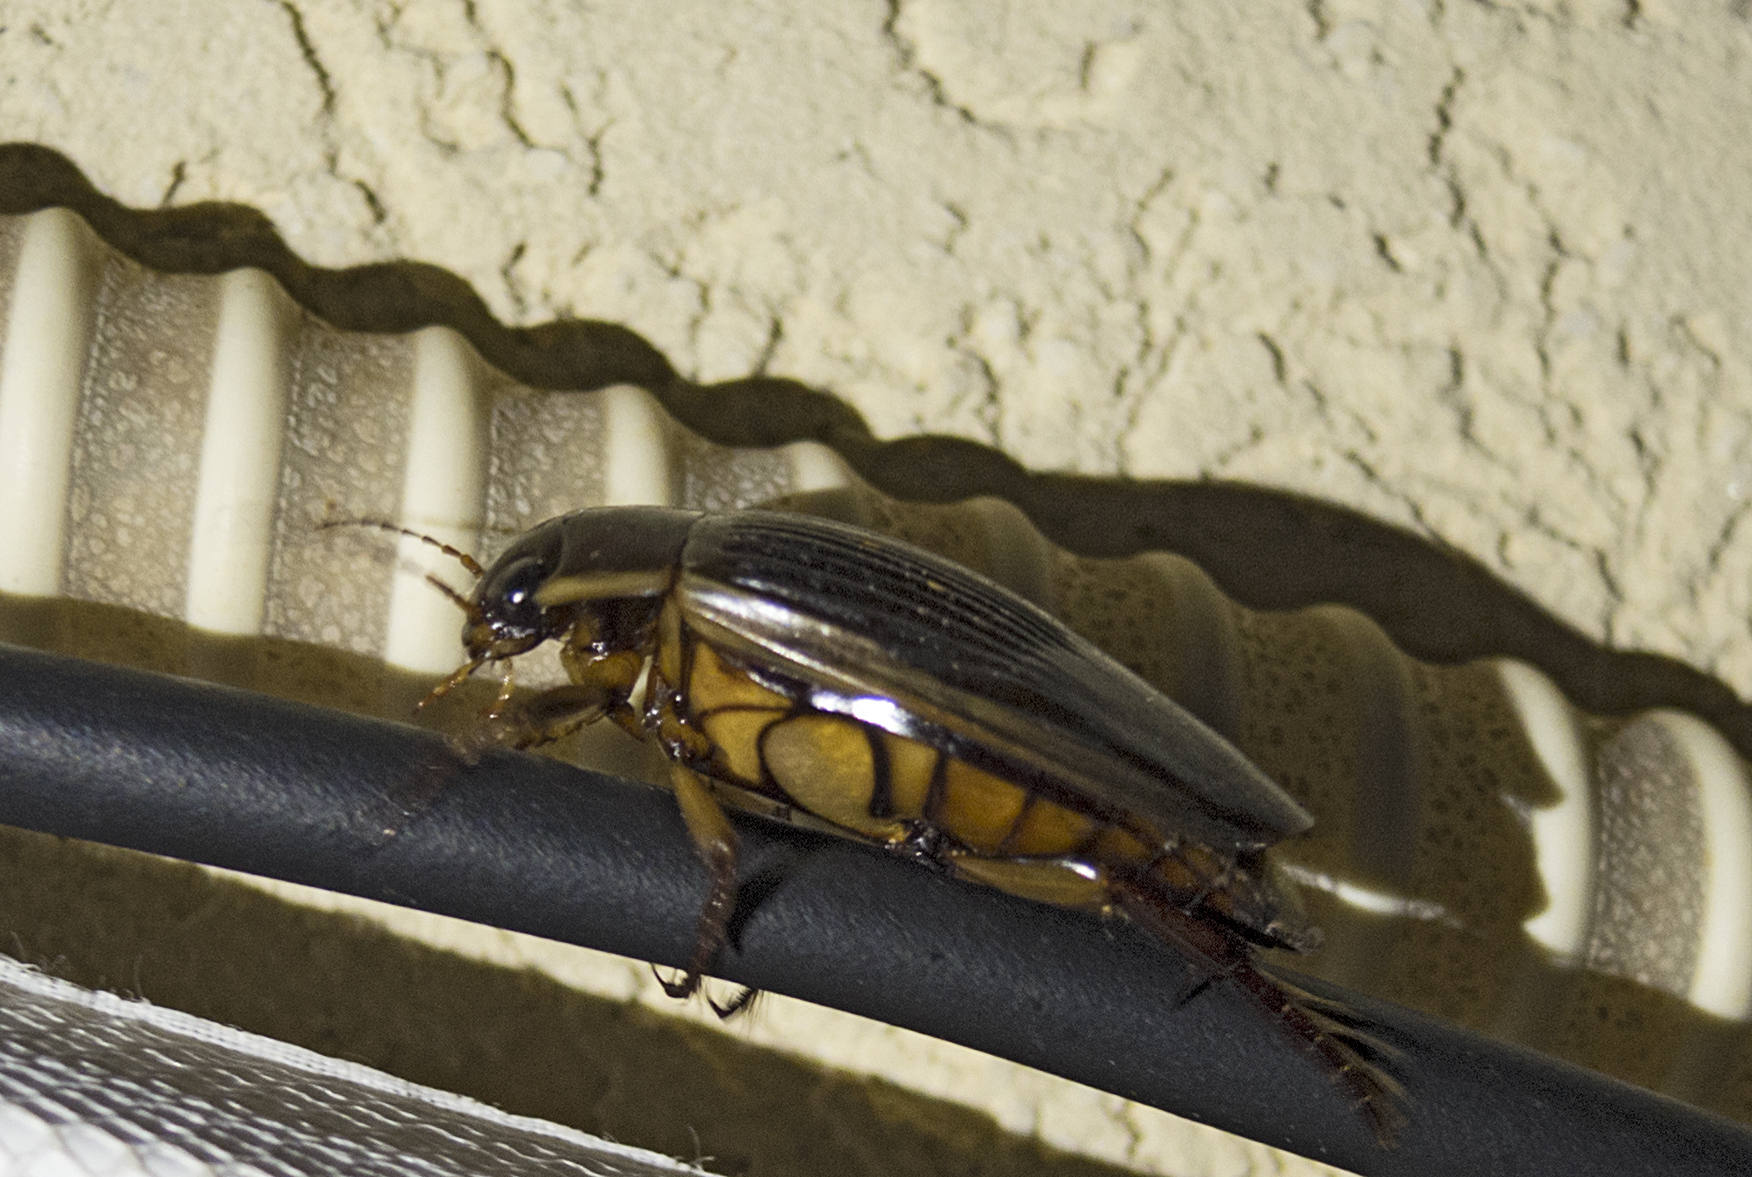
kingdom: Animalia
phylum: Arthropoda
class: Insecta
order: Coleoptera
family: Dytiscidae
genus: Dytiscus
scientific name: Dytiscus dimidiatus
